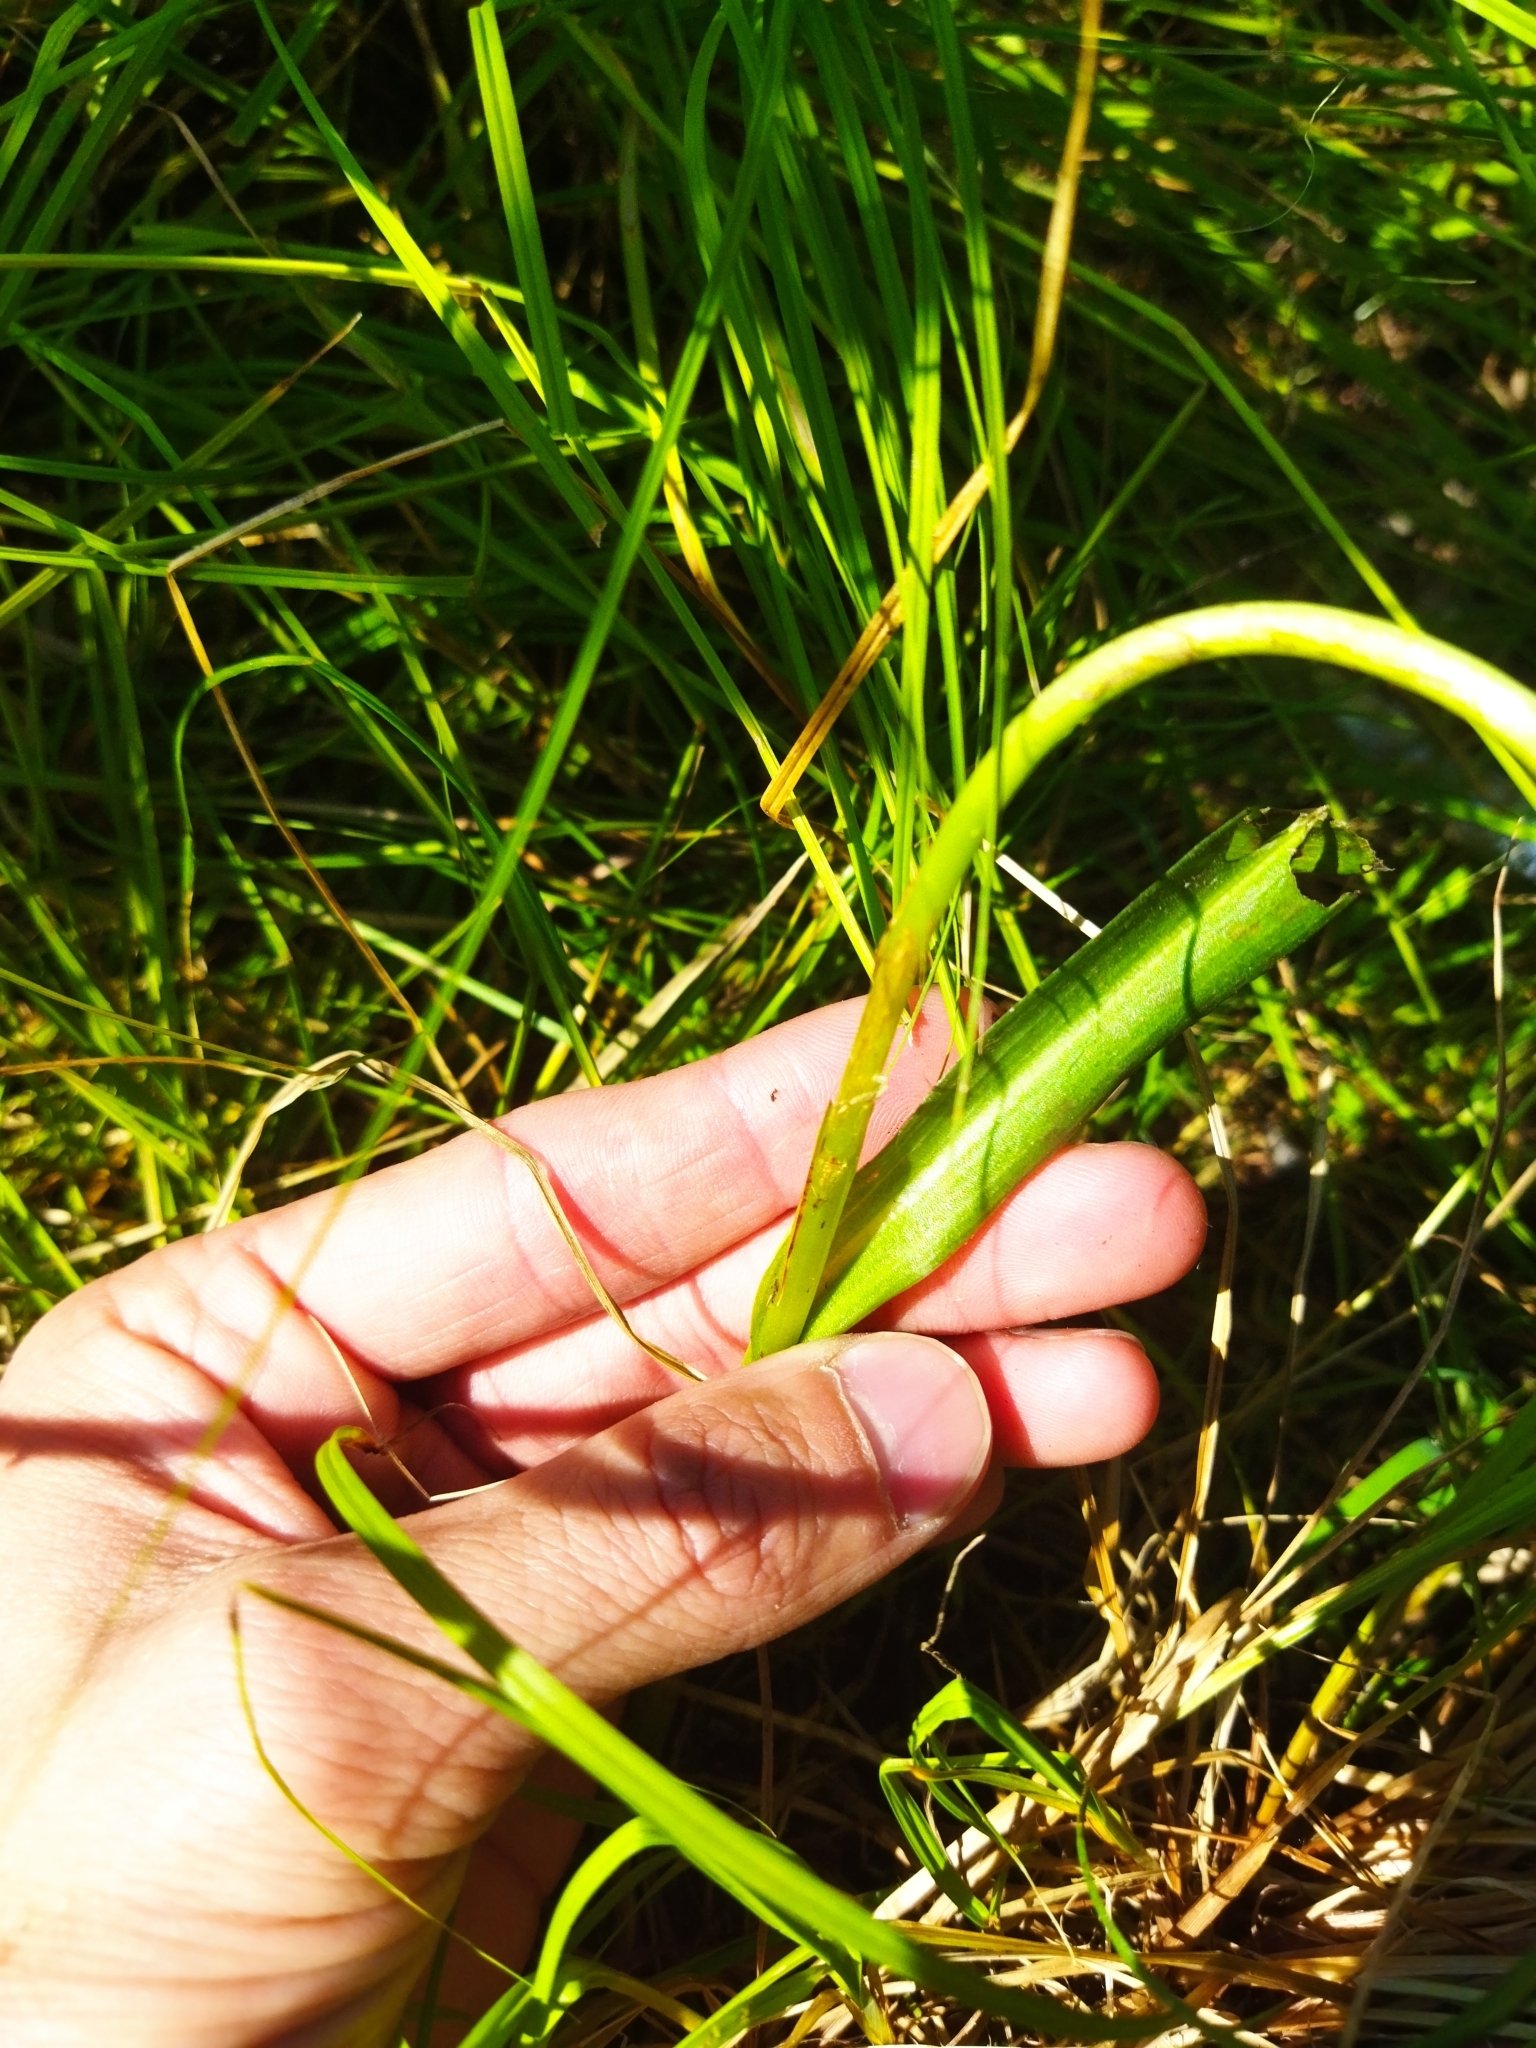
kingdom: Plantae
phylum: Tracheophyta
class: Liliopsida
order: Asparagales
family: Orchidaceae
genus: Dactylorhiza
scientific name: Dactylorhiza majalis
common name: Marsh orchid
